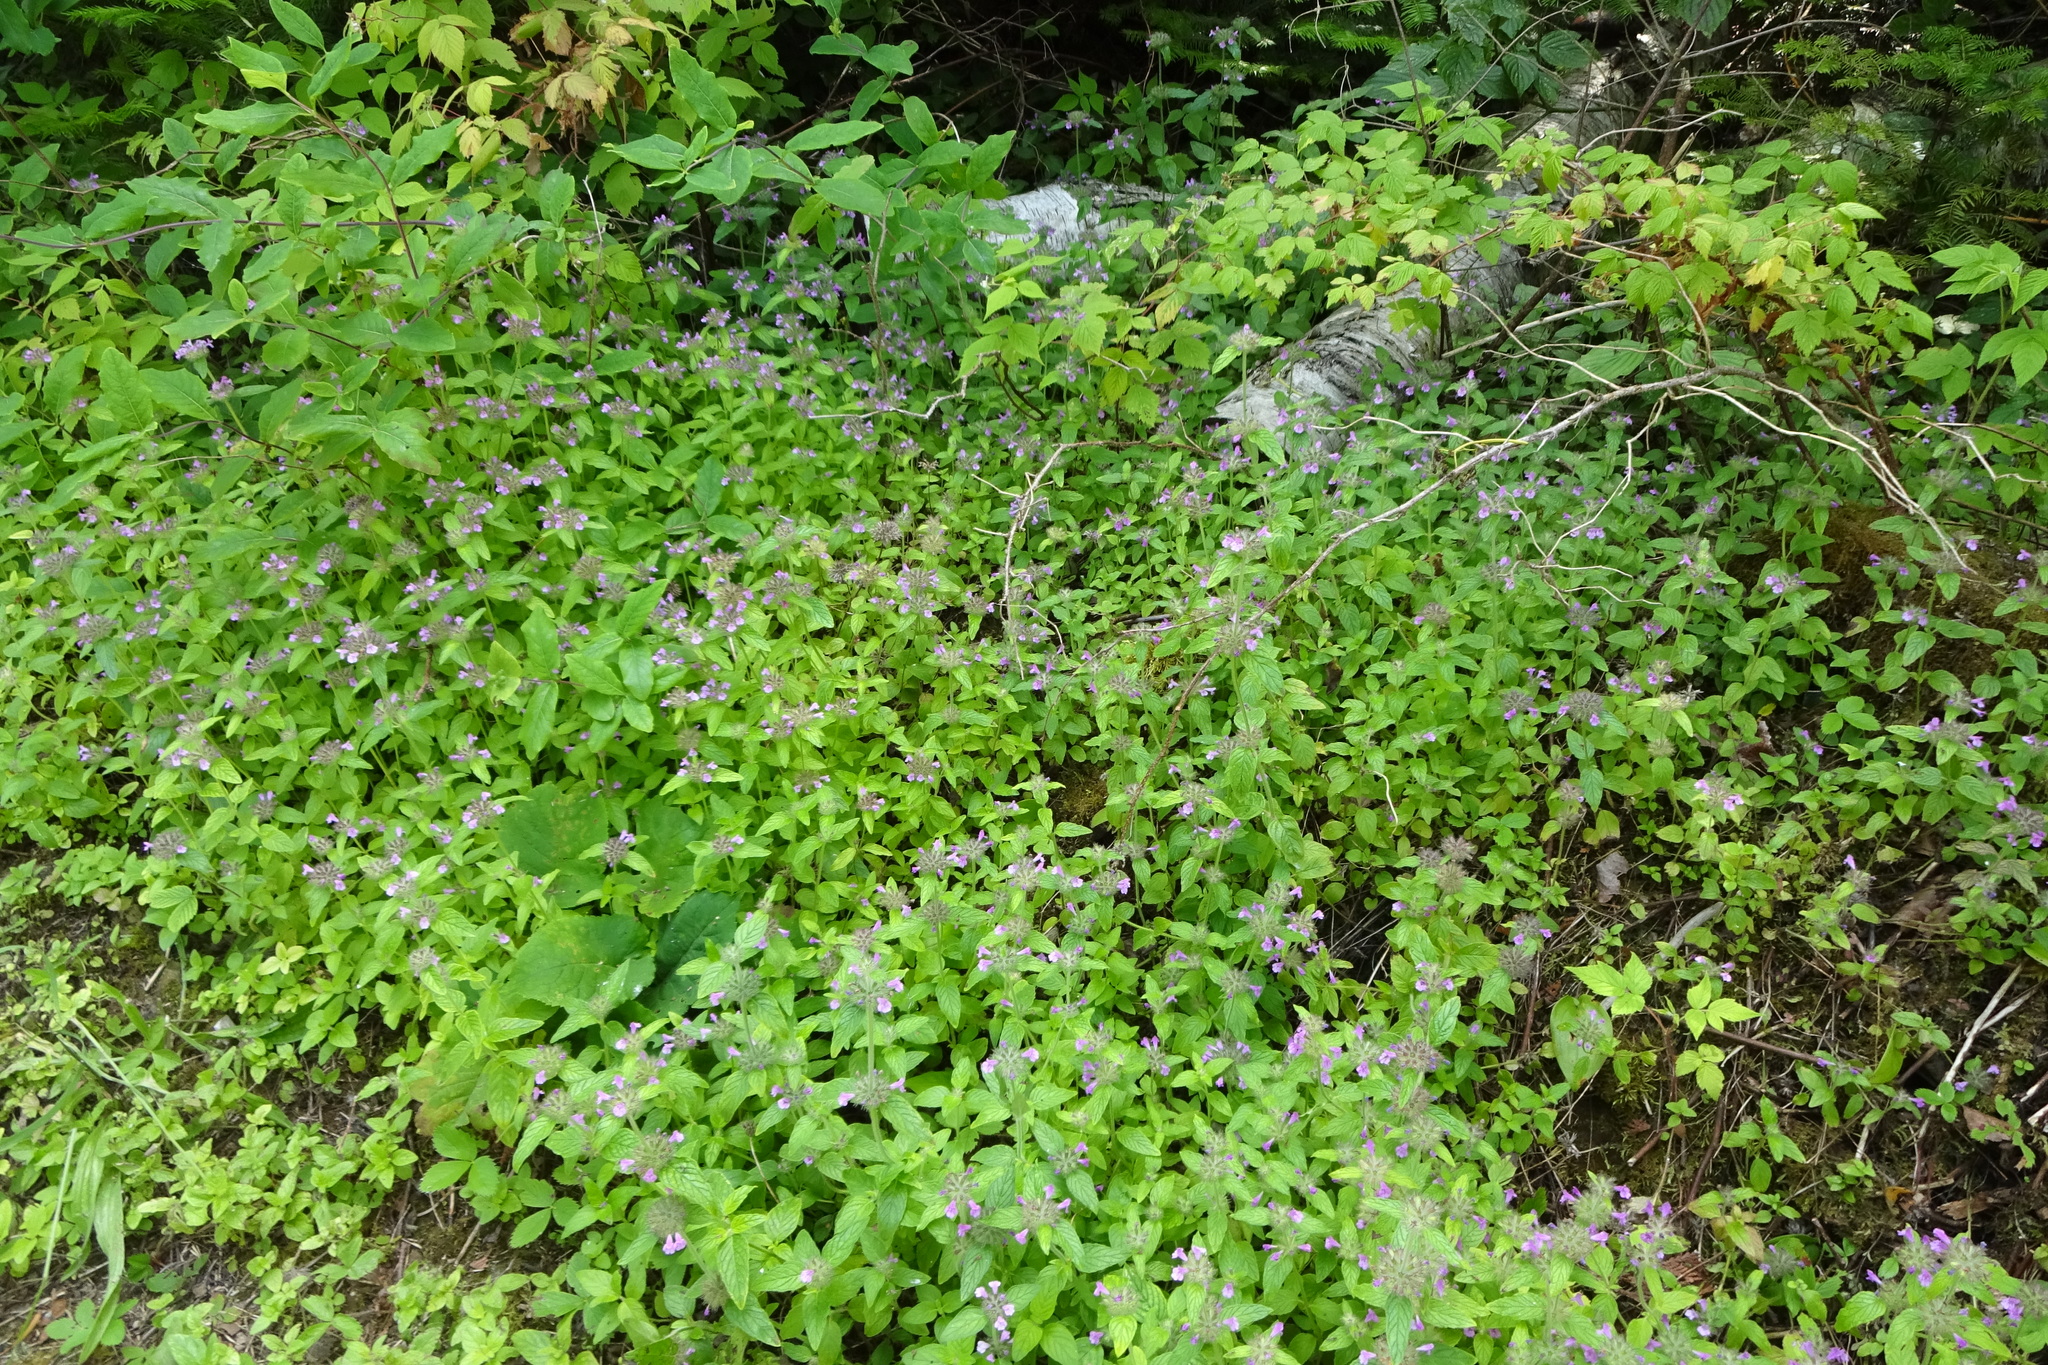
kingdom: Plantae
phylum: Tracheophyta
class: Magnoliopsida
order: Lamiales
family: Lamiaceae
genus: Clinopodium
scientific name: Clinopodium vulgare
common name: Wild basil
